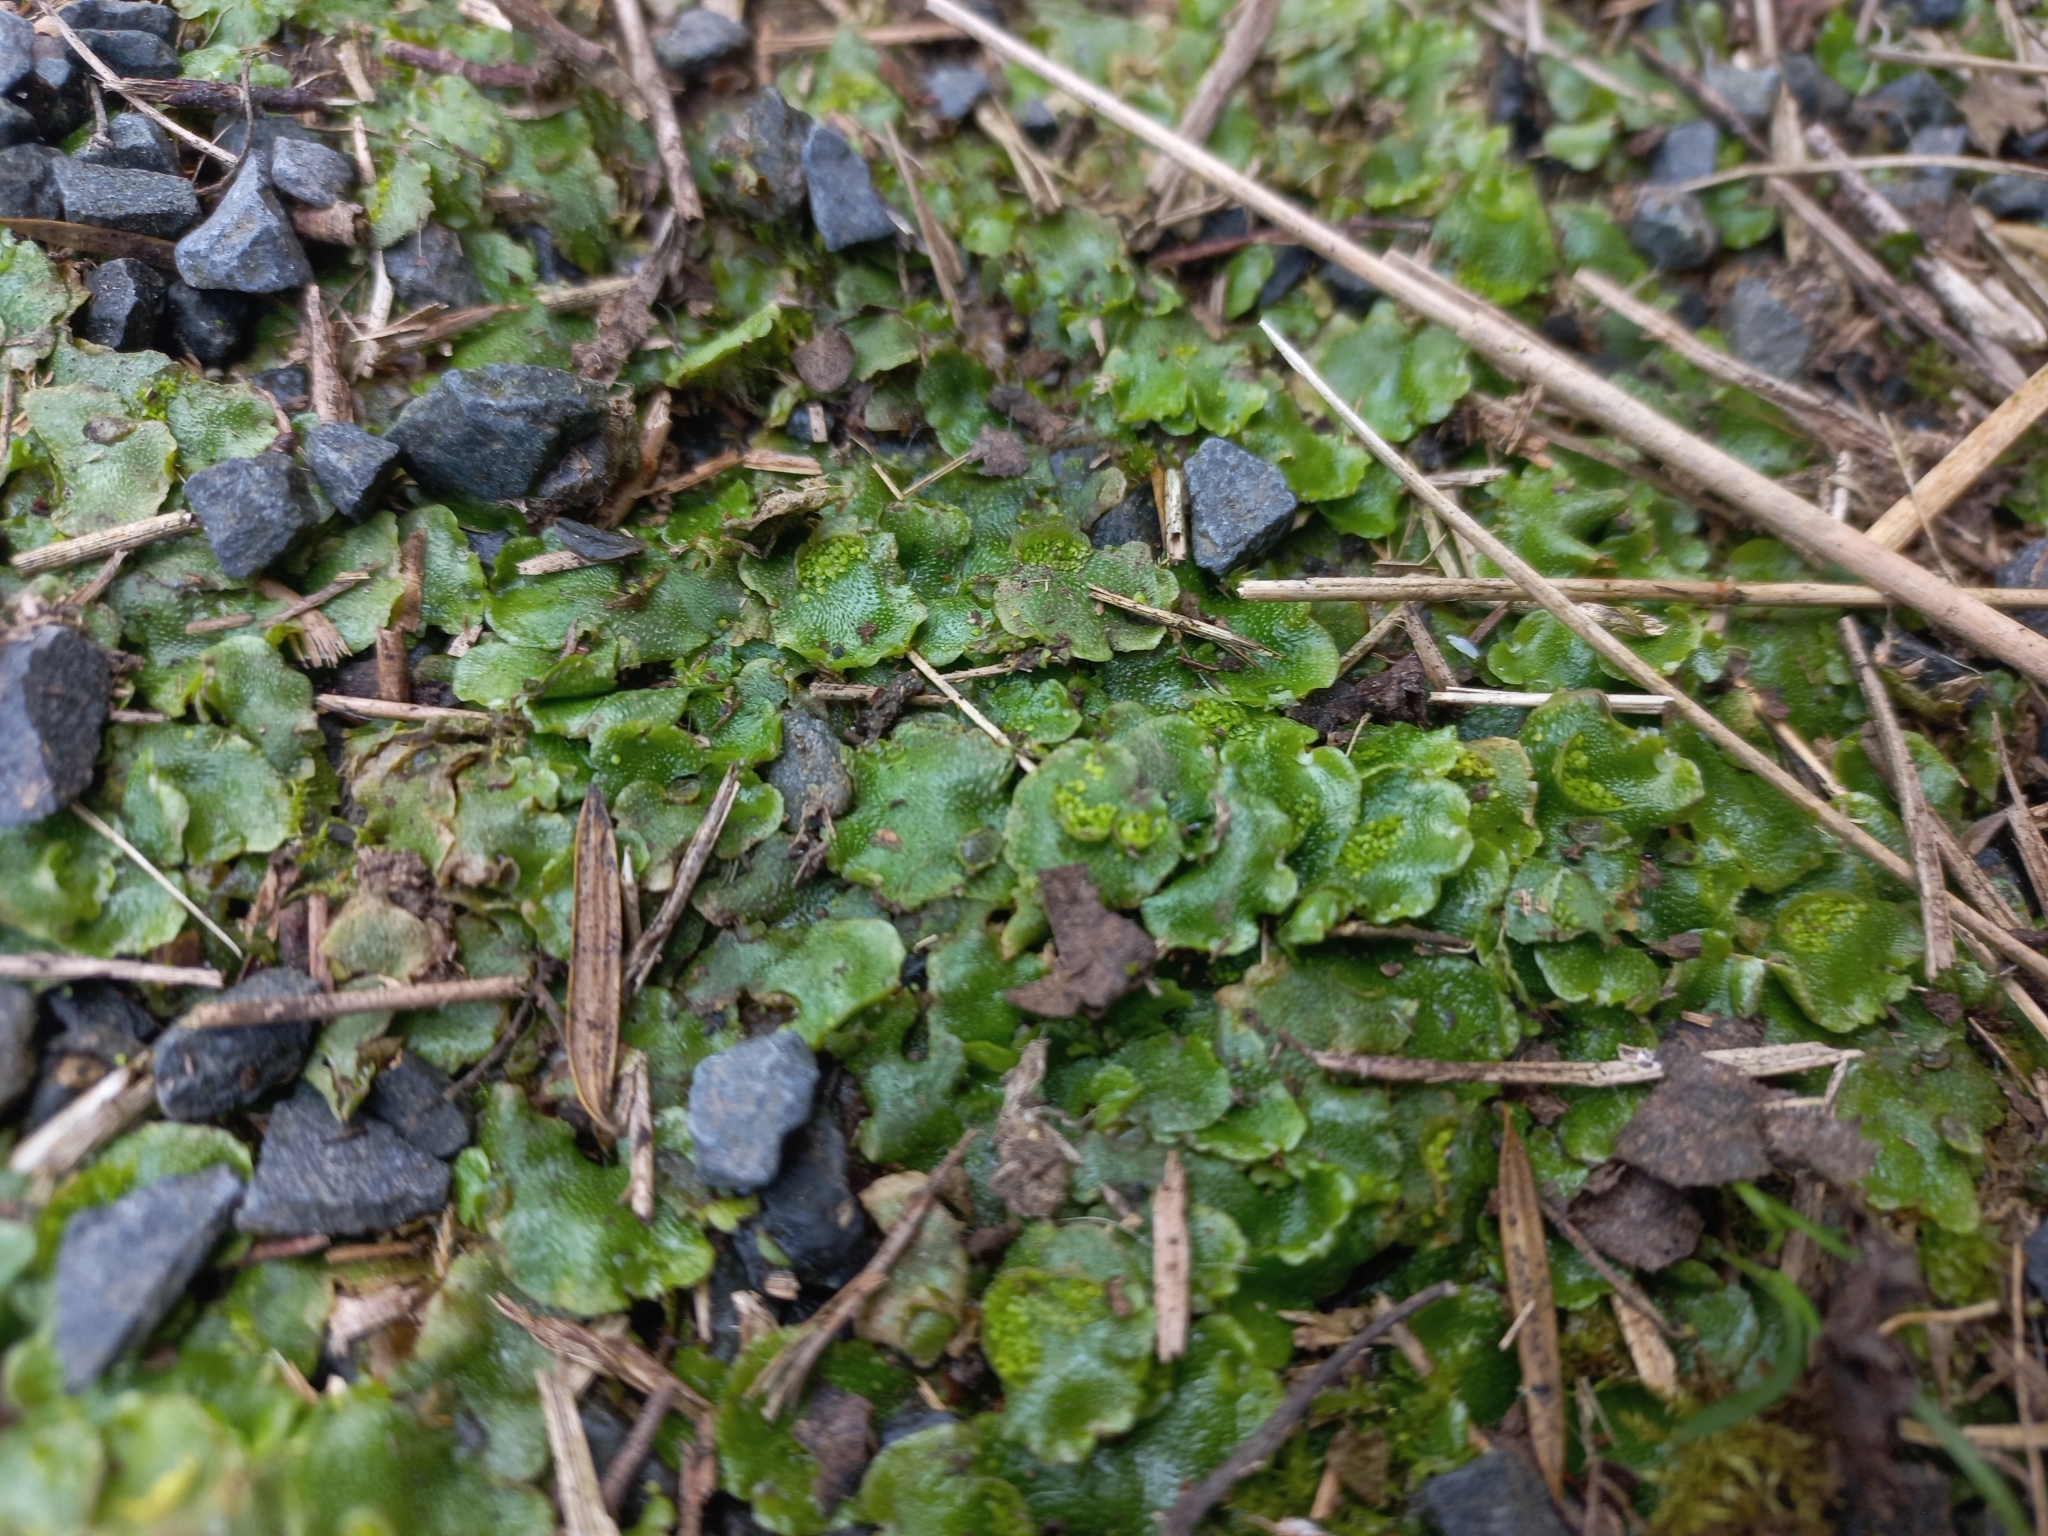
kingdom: Plantae
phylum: Marchantiophyta
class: Marchantiopsida
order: Lunulariales
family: Lunulariaceae
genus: Lunularia
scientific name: Lunularia cruciata
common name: Crescent-cup liverwort
